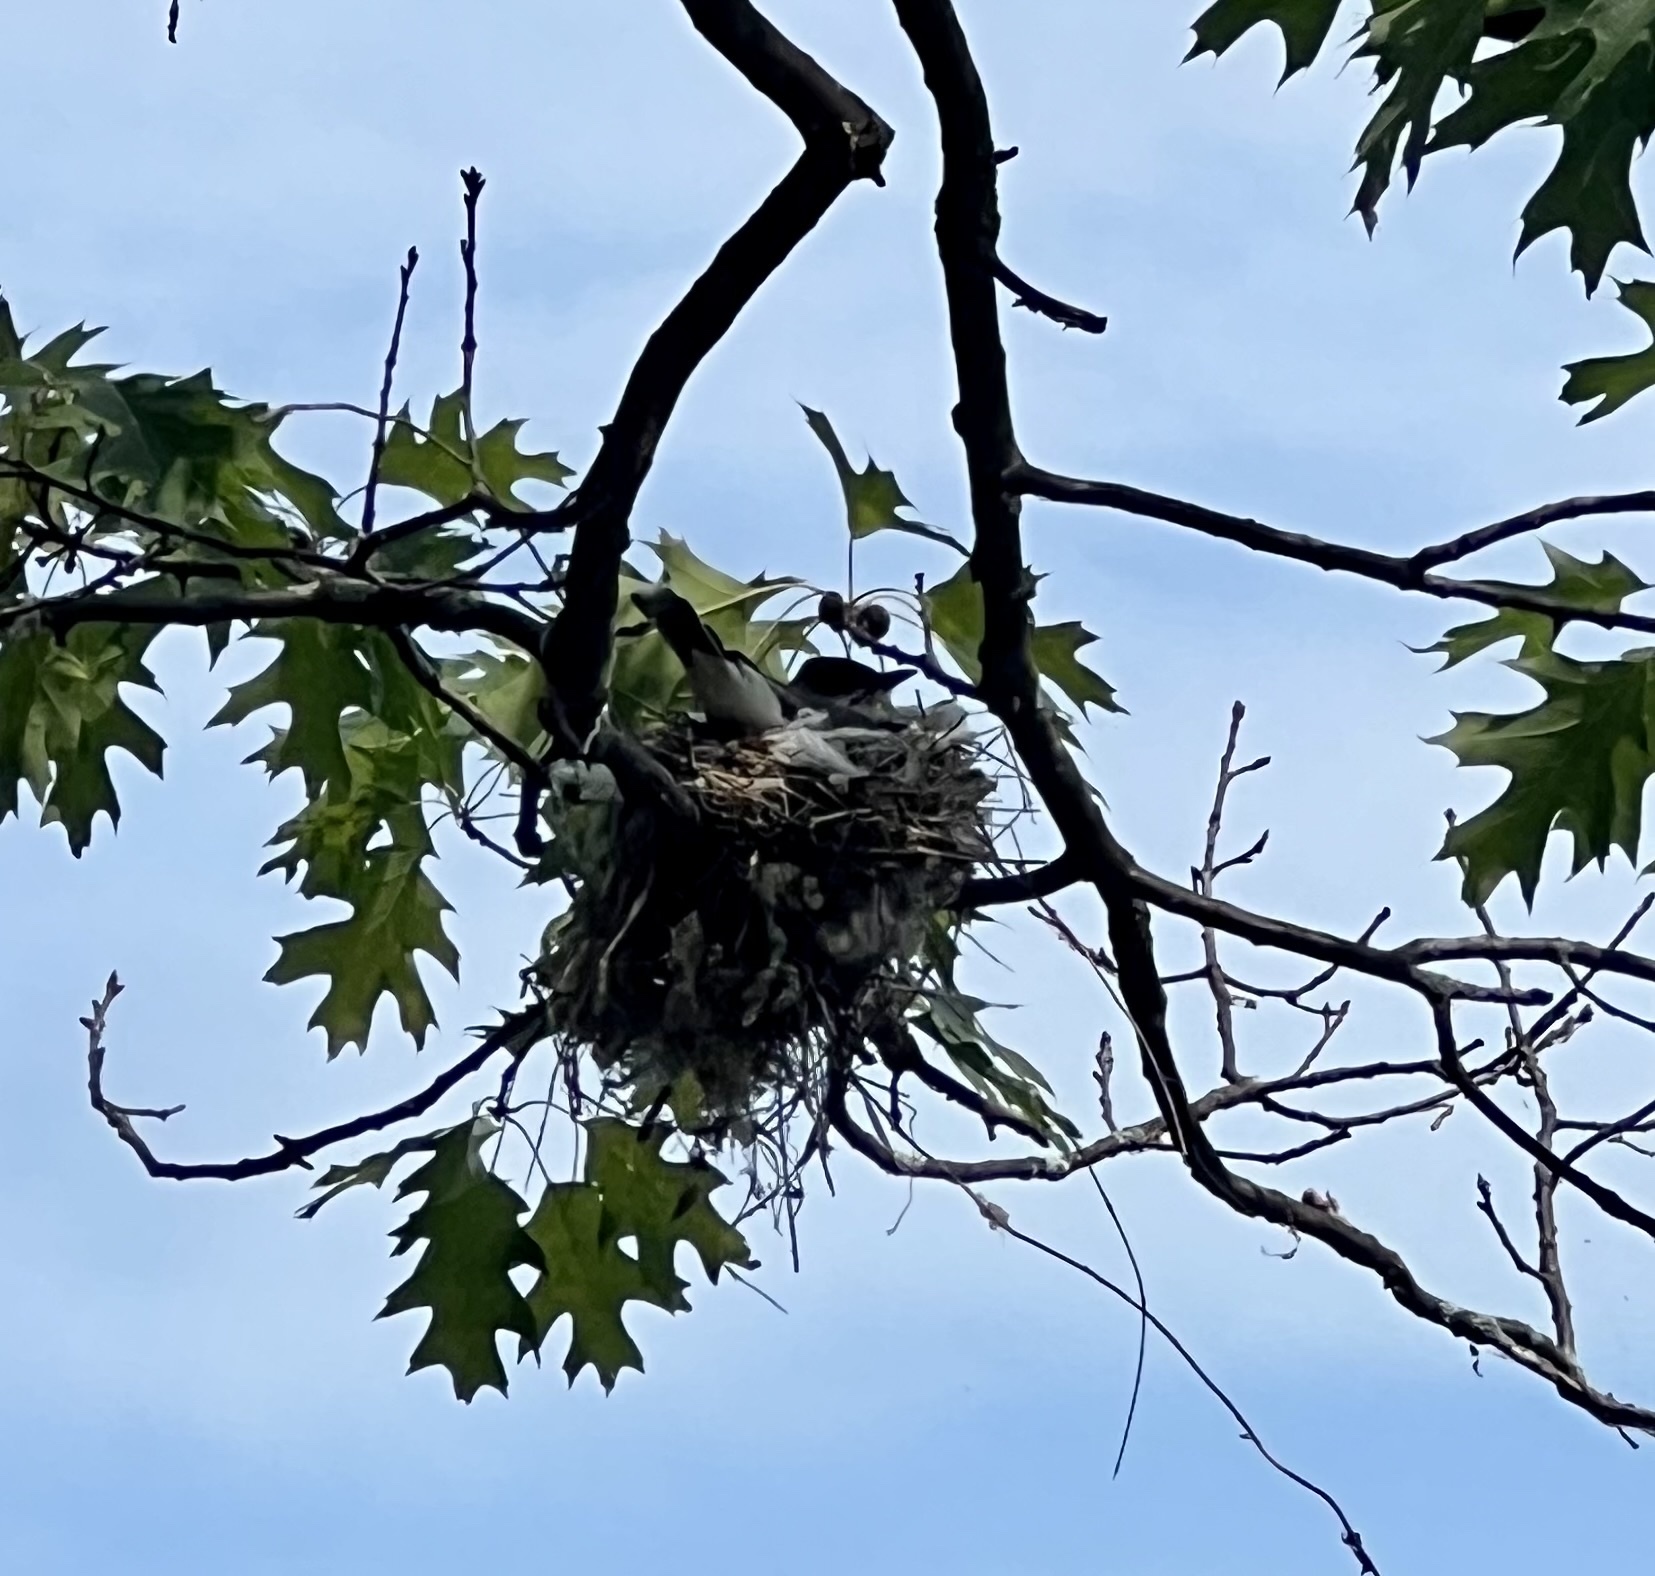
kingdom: Animalia
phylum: Chordata
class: Aves
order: Passeriformes
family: Tyrannidae
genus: Tyrannus
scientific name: Tyrannus tyrannus
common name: Eastern kingbird
